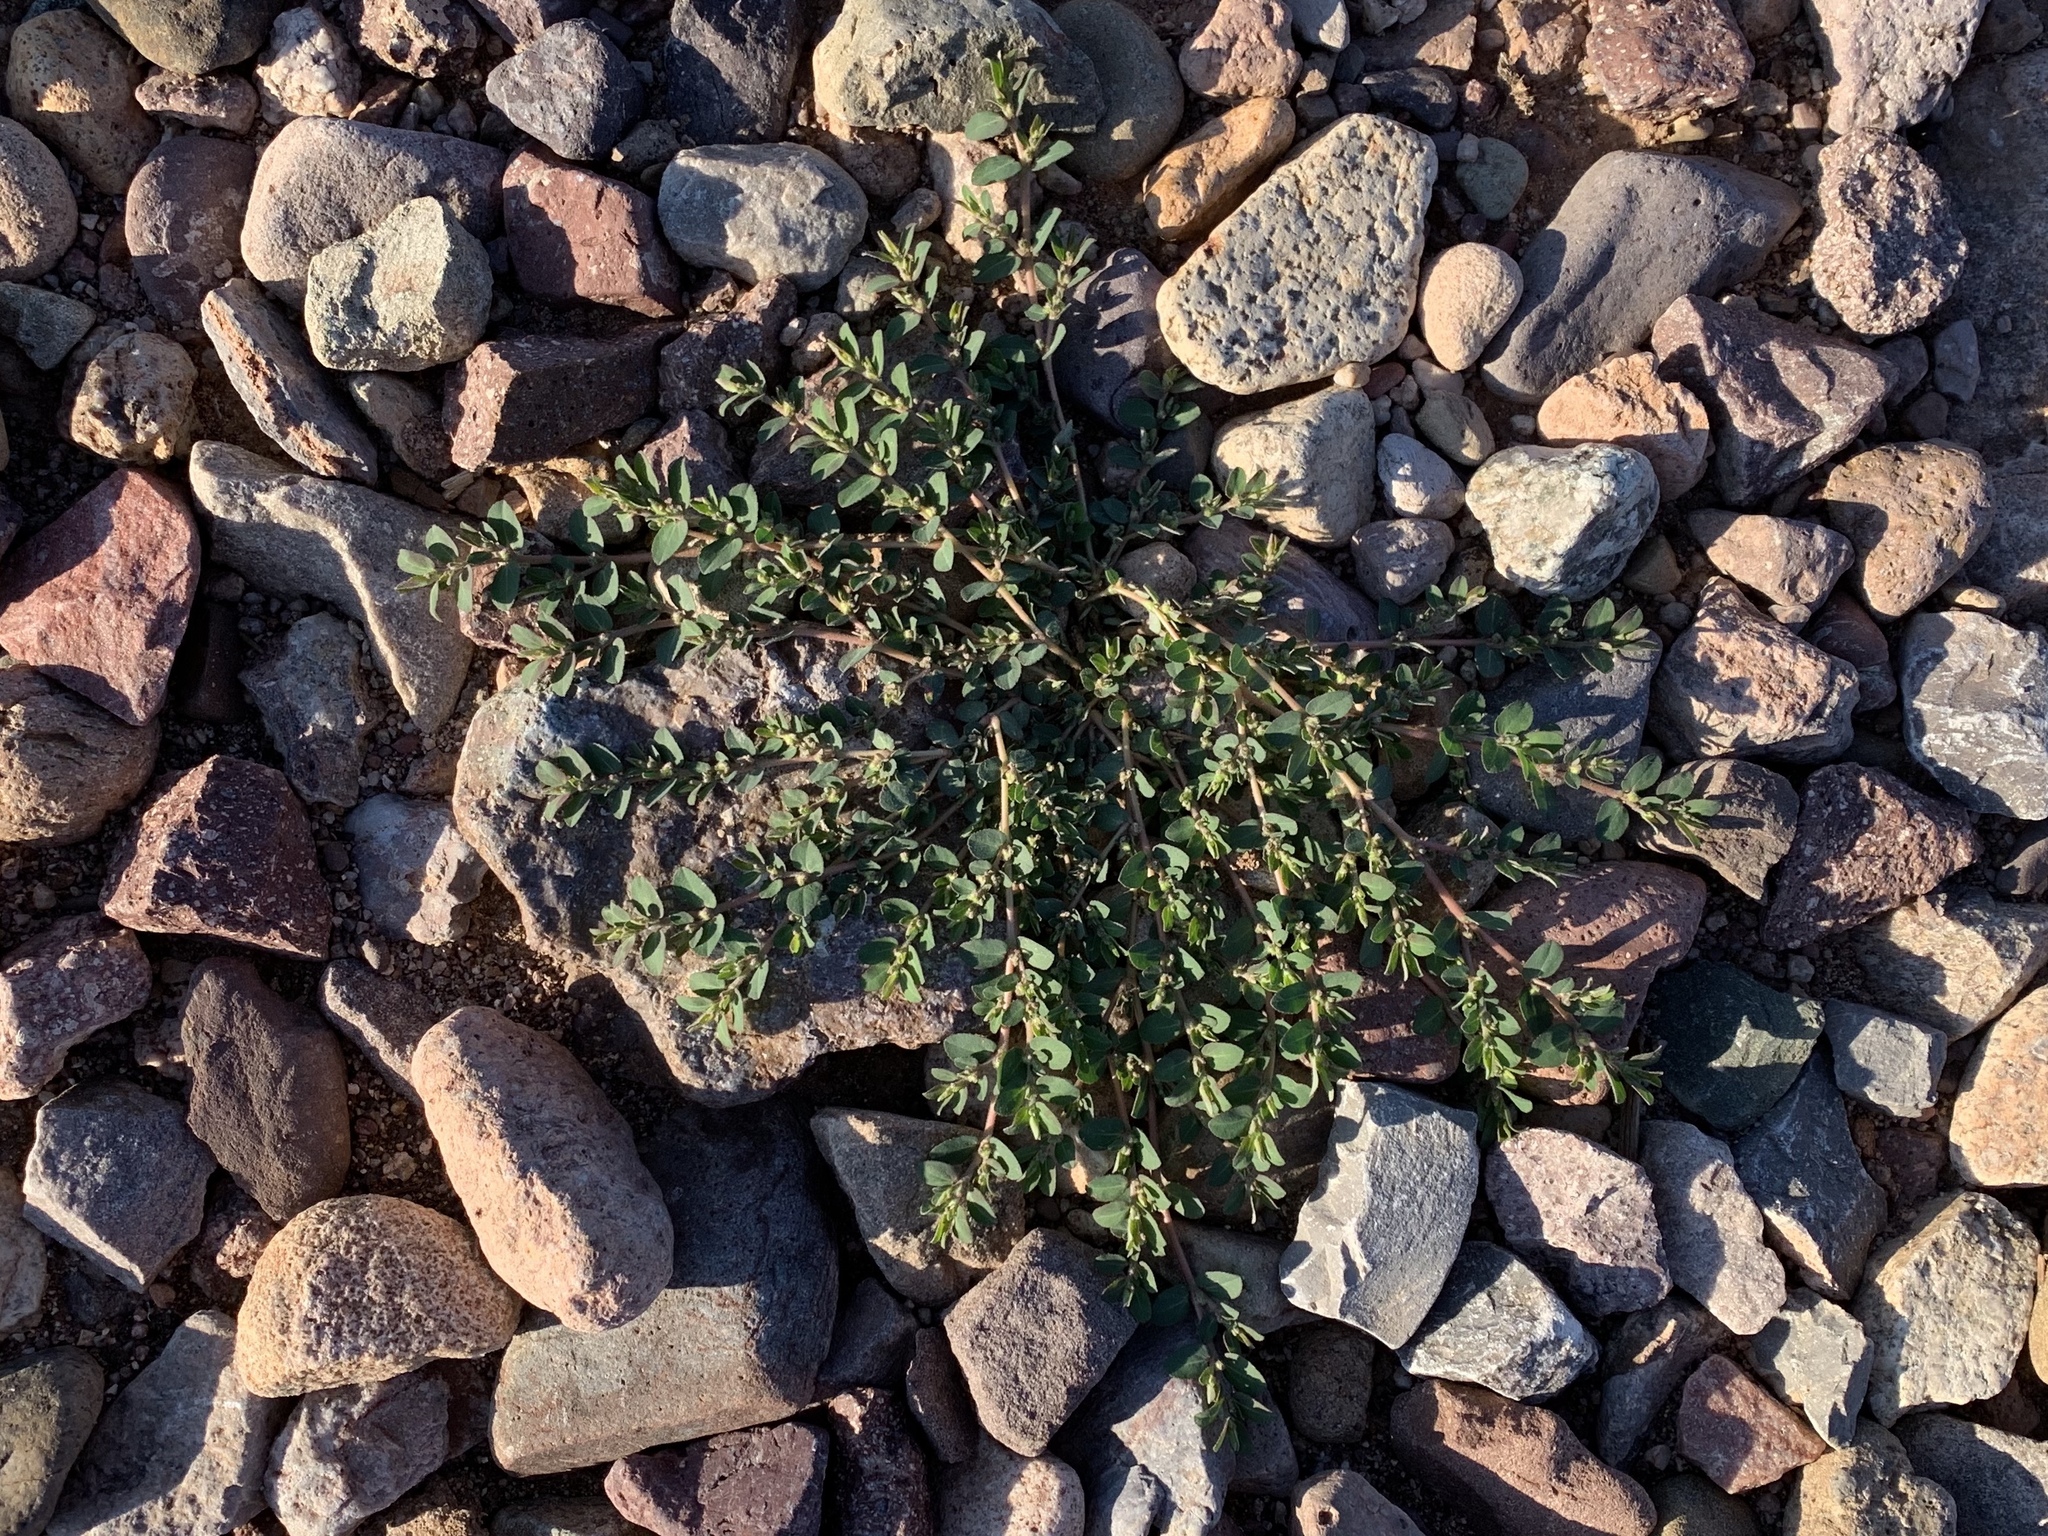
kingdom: Plantae
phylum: Tracheophyta
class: Magnoliopsida
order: Malpighiales
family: Euphorbiaceae
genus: Euphorbia
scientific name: Euphorbia prostrata
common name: Prostrate sandmat
